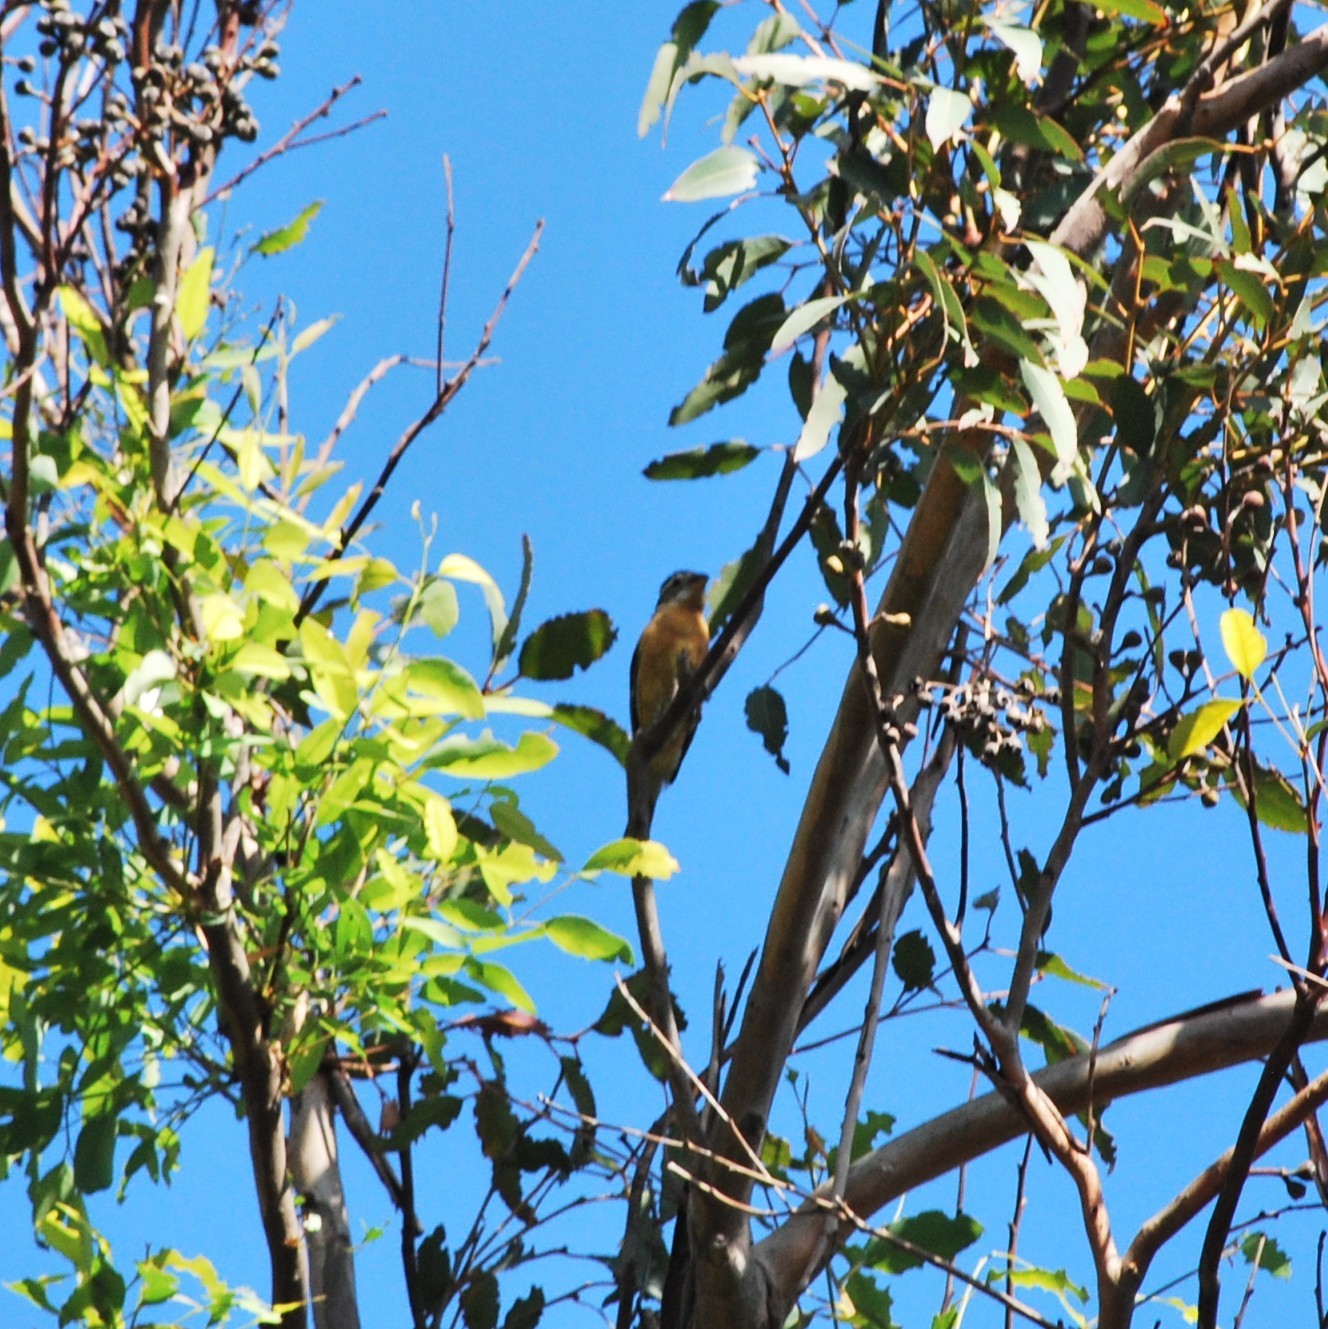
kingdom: Animalia
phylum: Chordata
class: Aves
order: Passeriformes
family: Cardinalidae
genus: Pheucticus
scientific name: Pheucticus melanocephalus
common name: Black-headed grosbeak
